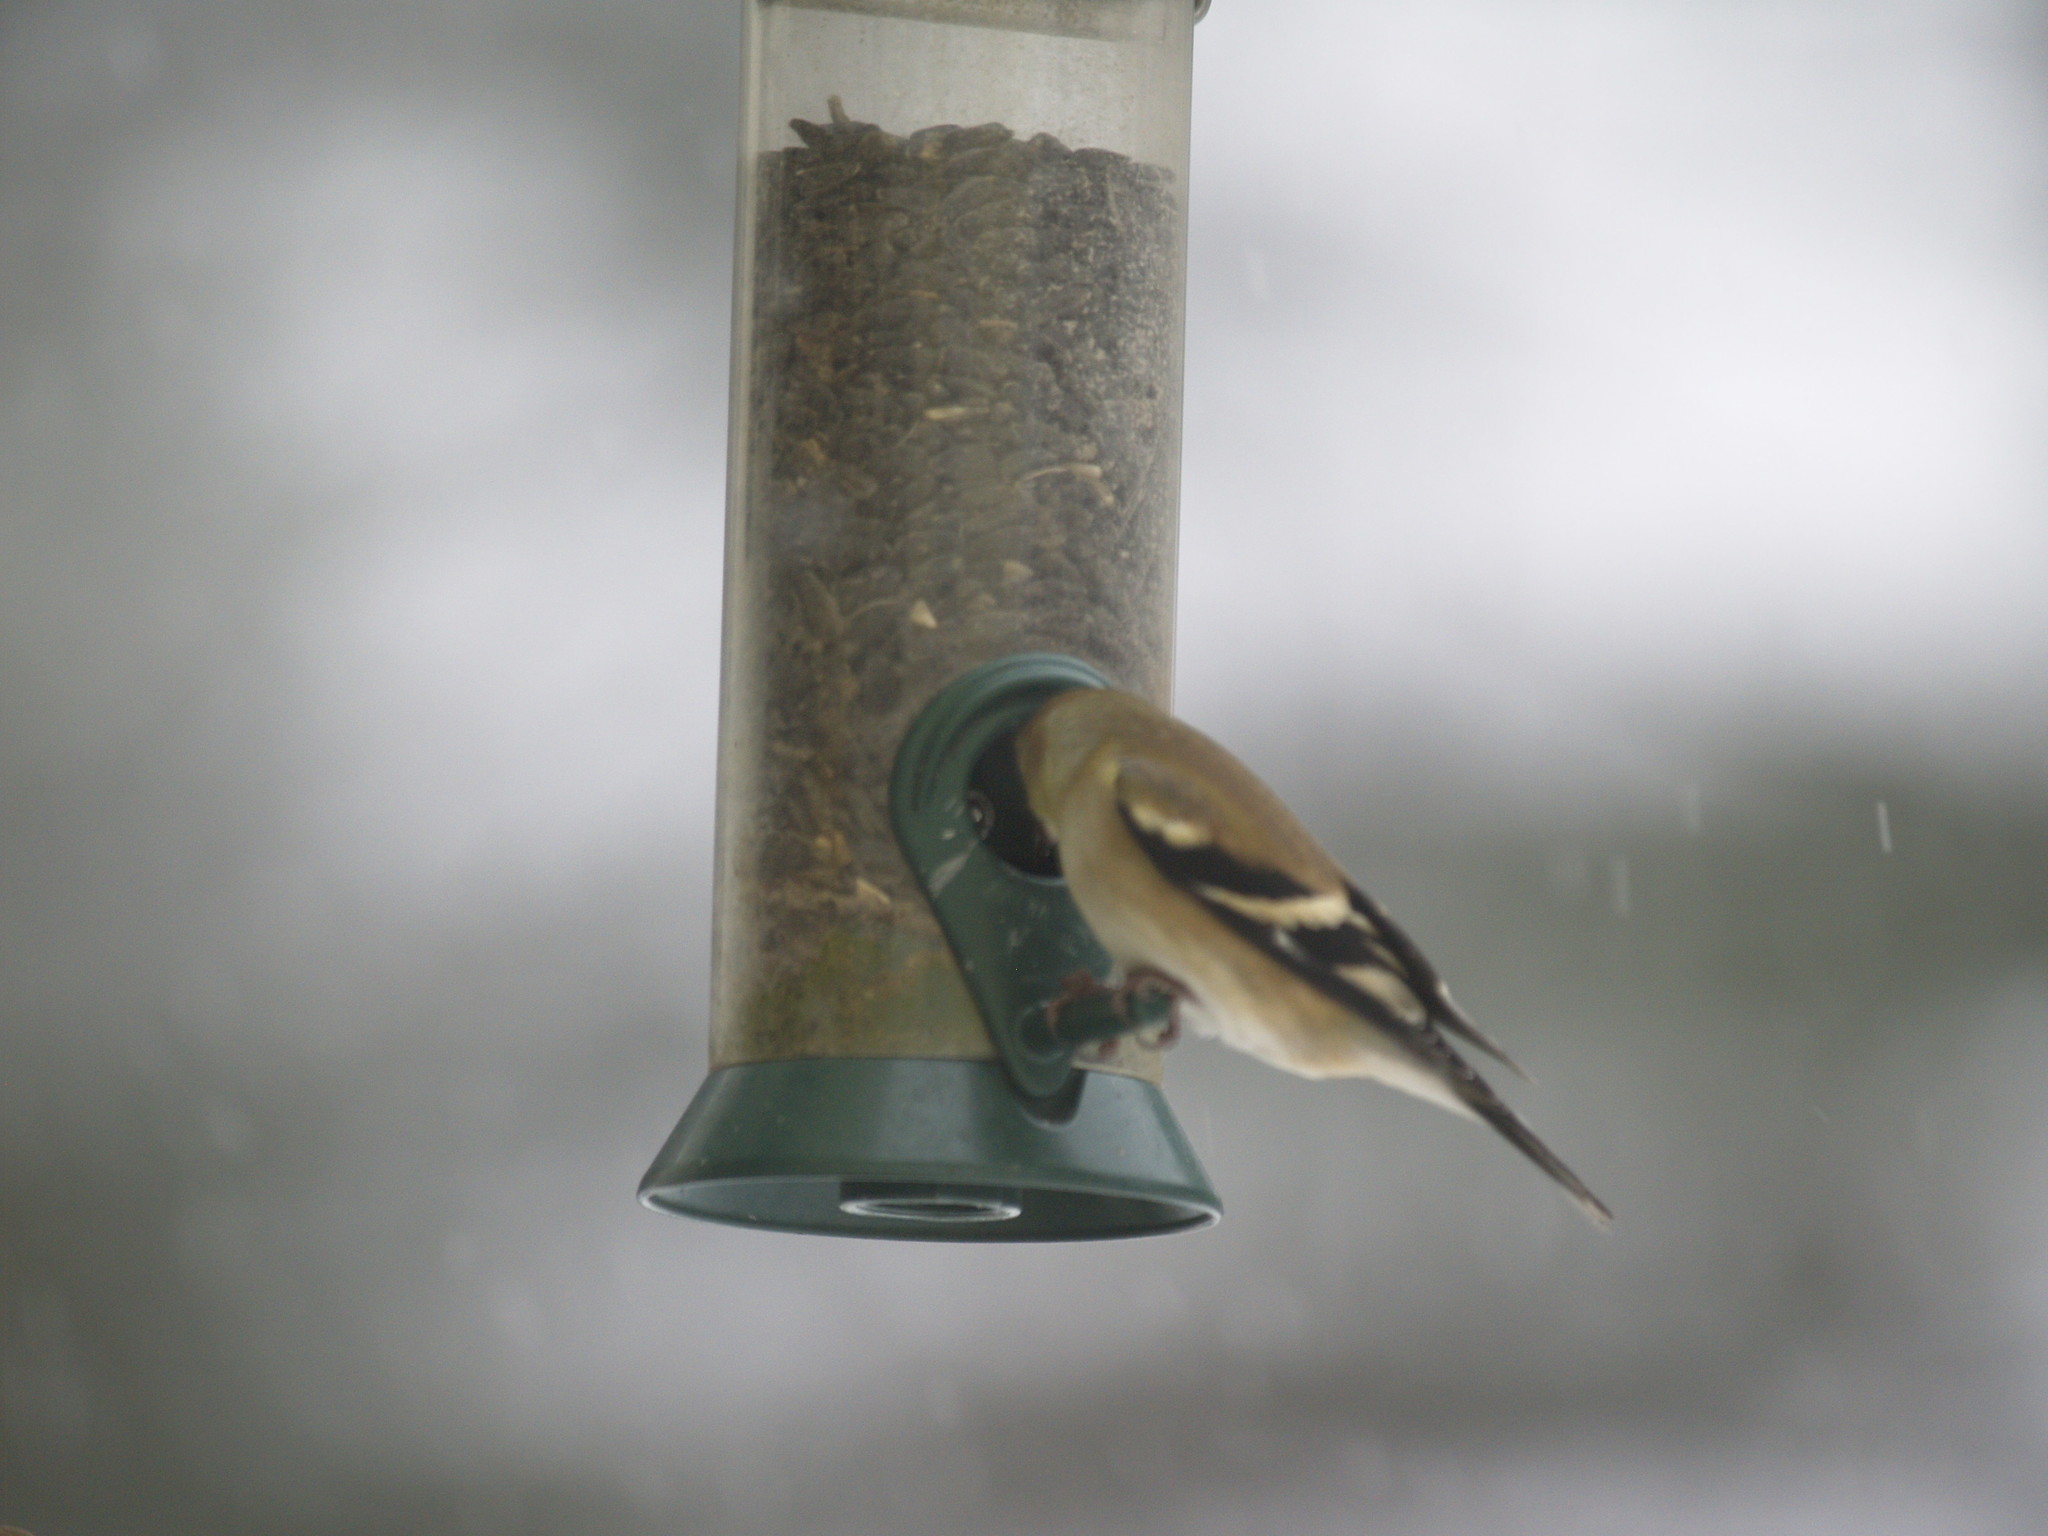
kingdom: Animalia
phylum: Chordata
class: Aves
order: Passeriformes
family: Fringillidae
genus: Spinus
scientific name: Spinus tristis
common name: American goldfinch
